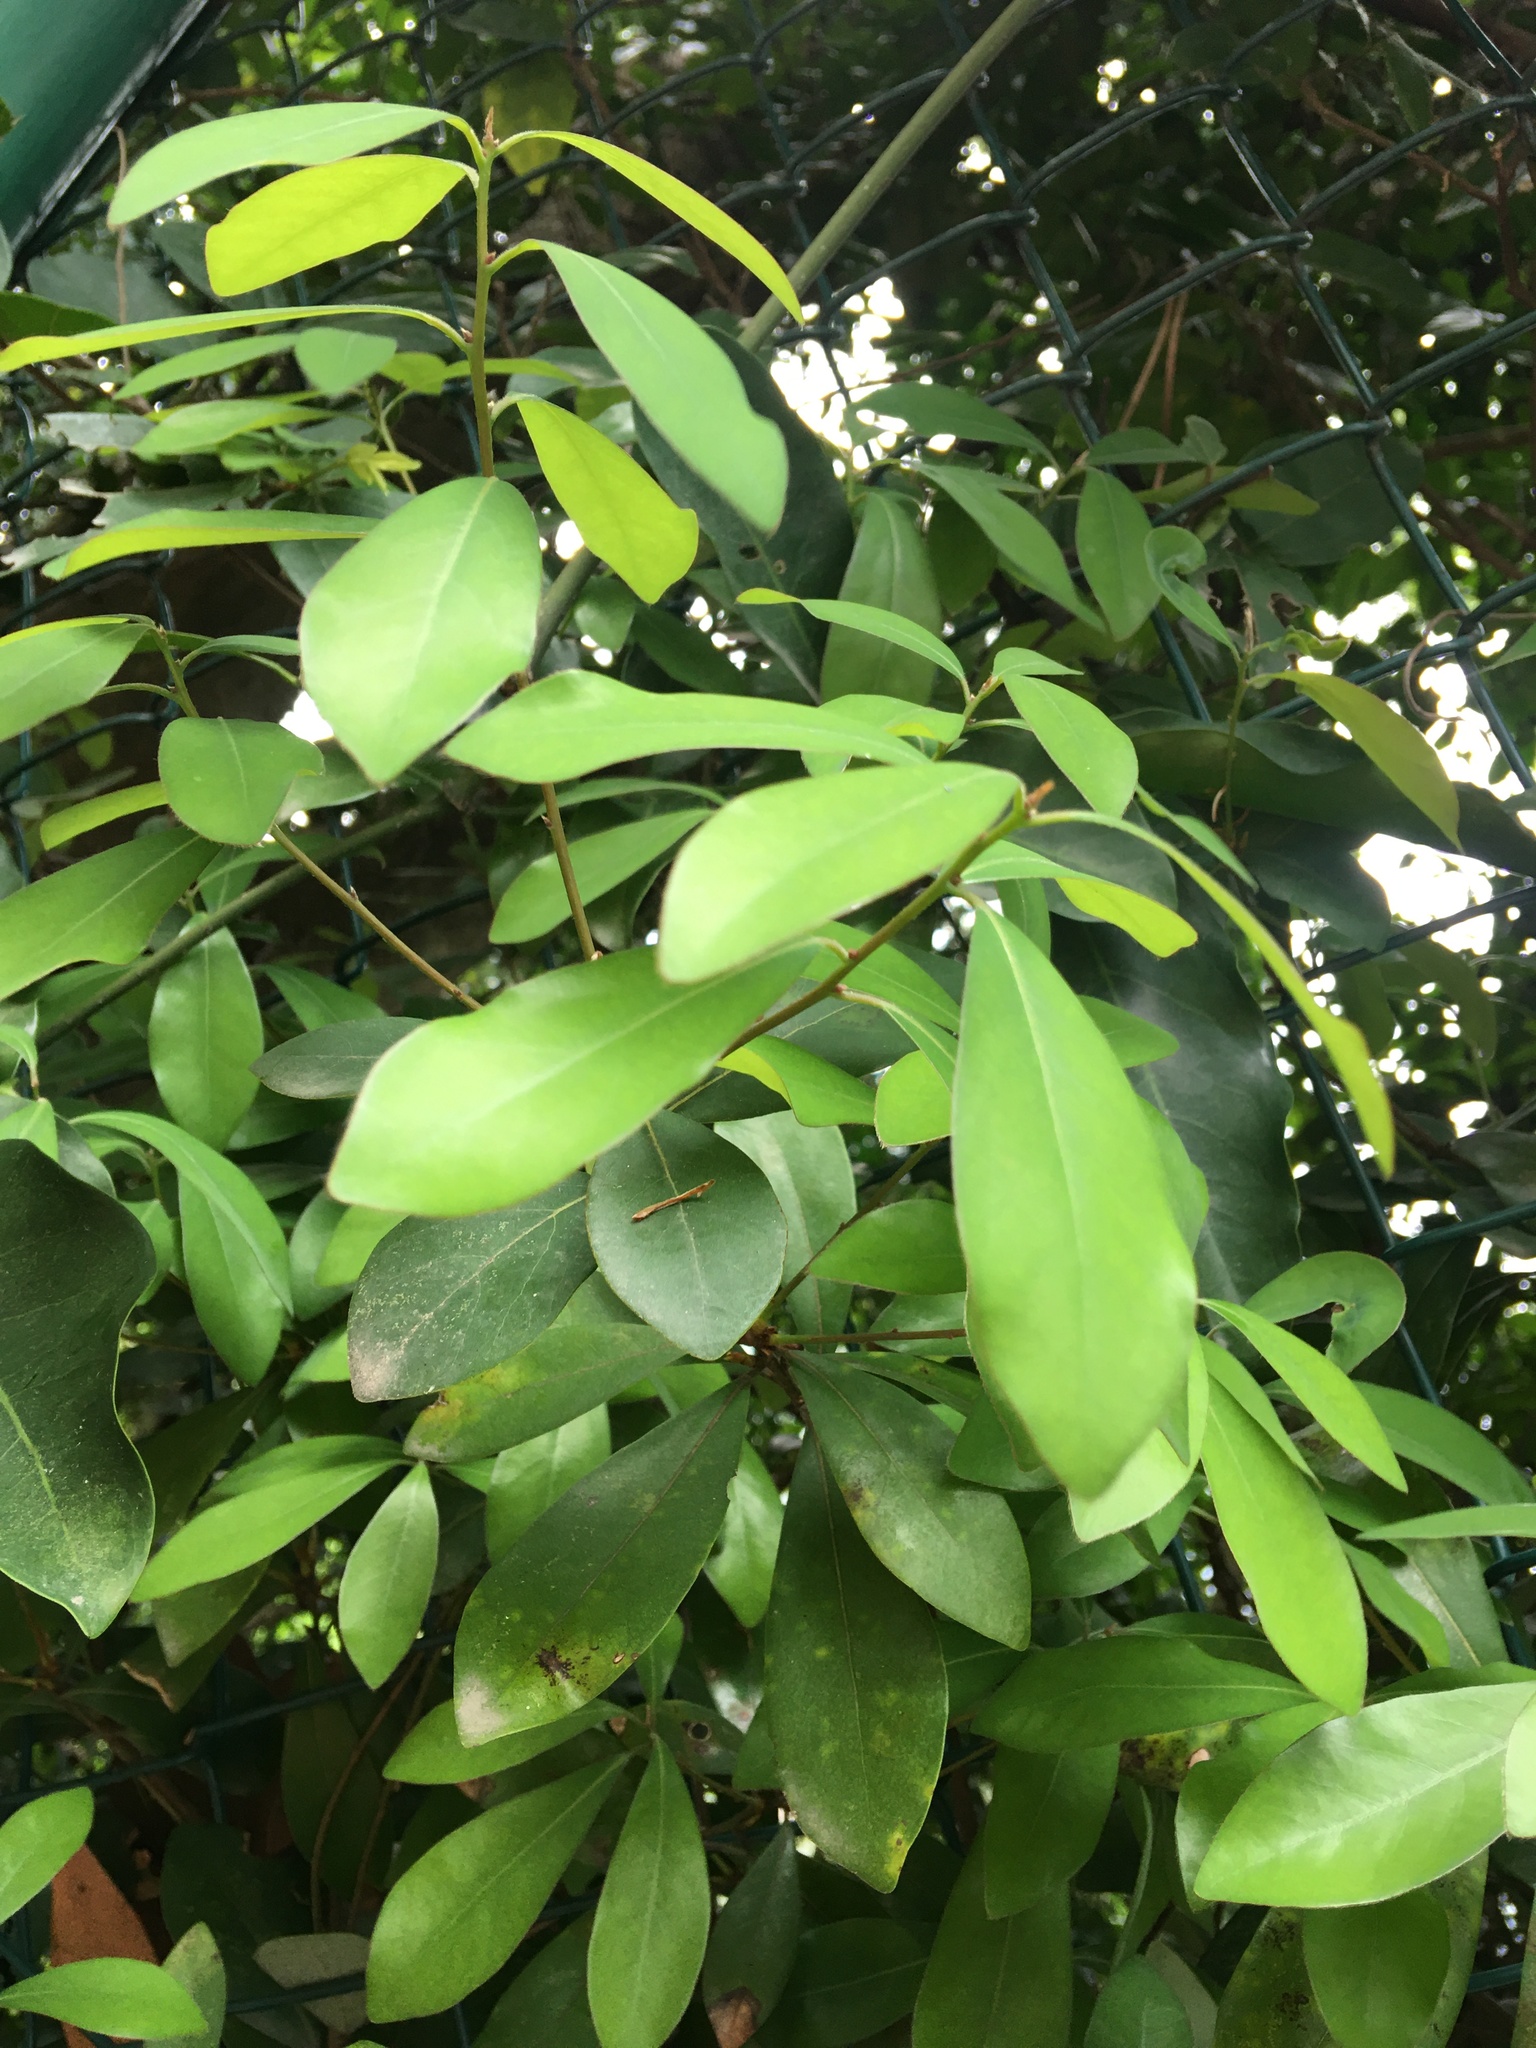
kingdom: Plantae
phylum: Tracheophyta
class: Magnoliopsida
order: Laurales
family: Lauraceae
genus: Litsea
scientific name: Litsea rotundifolia
